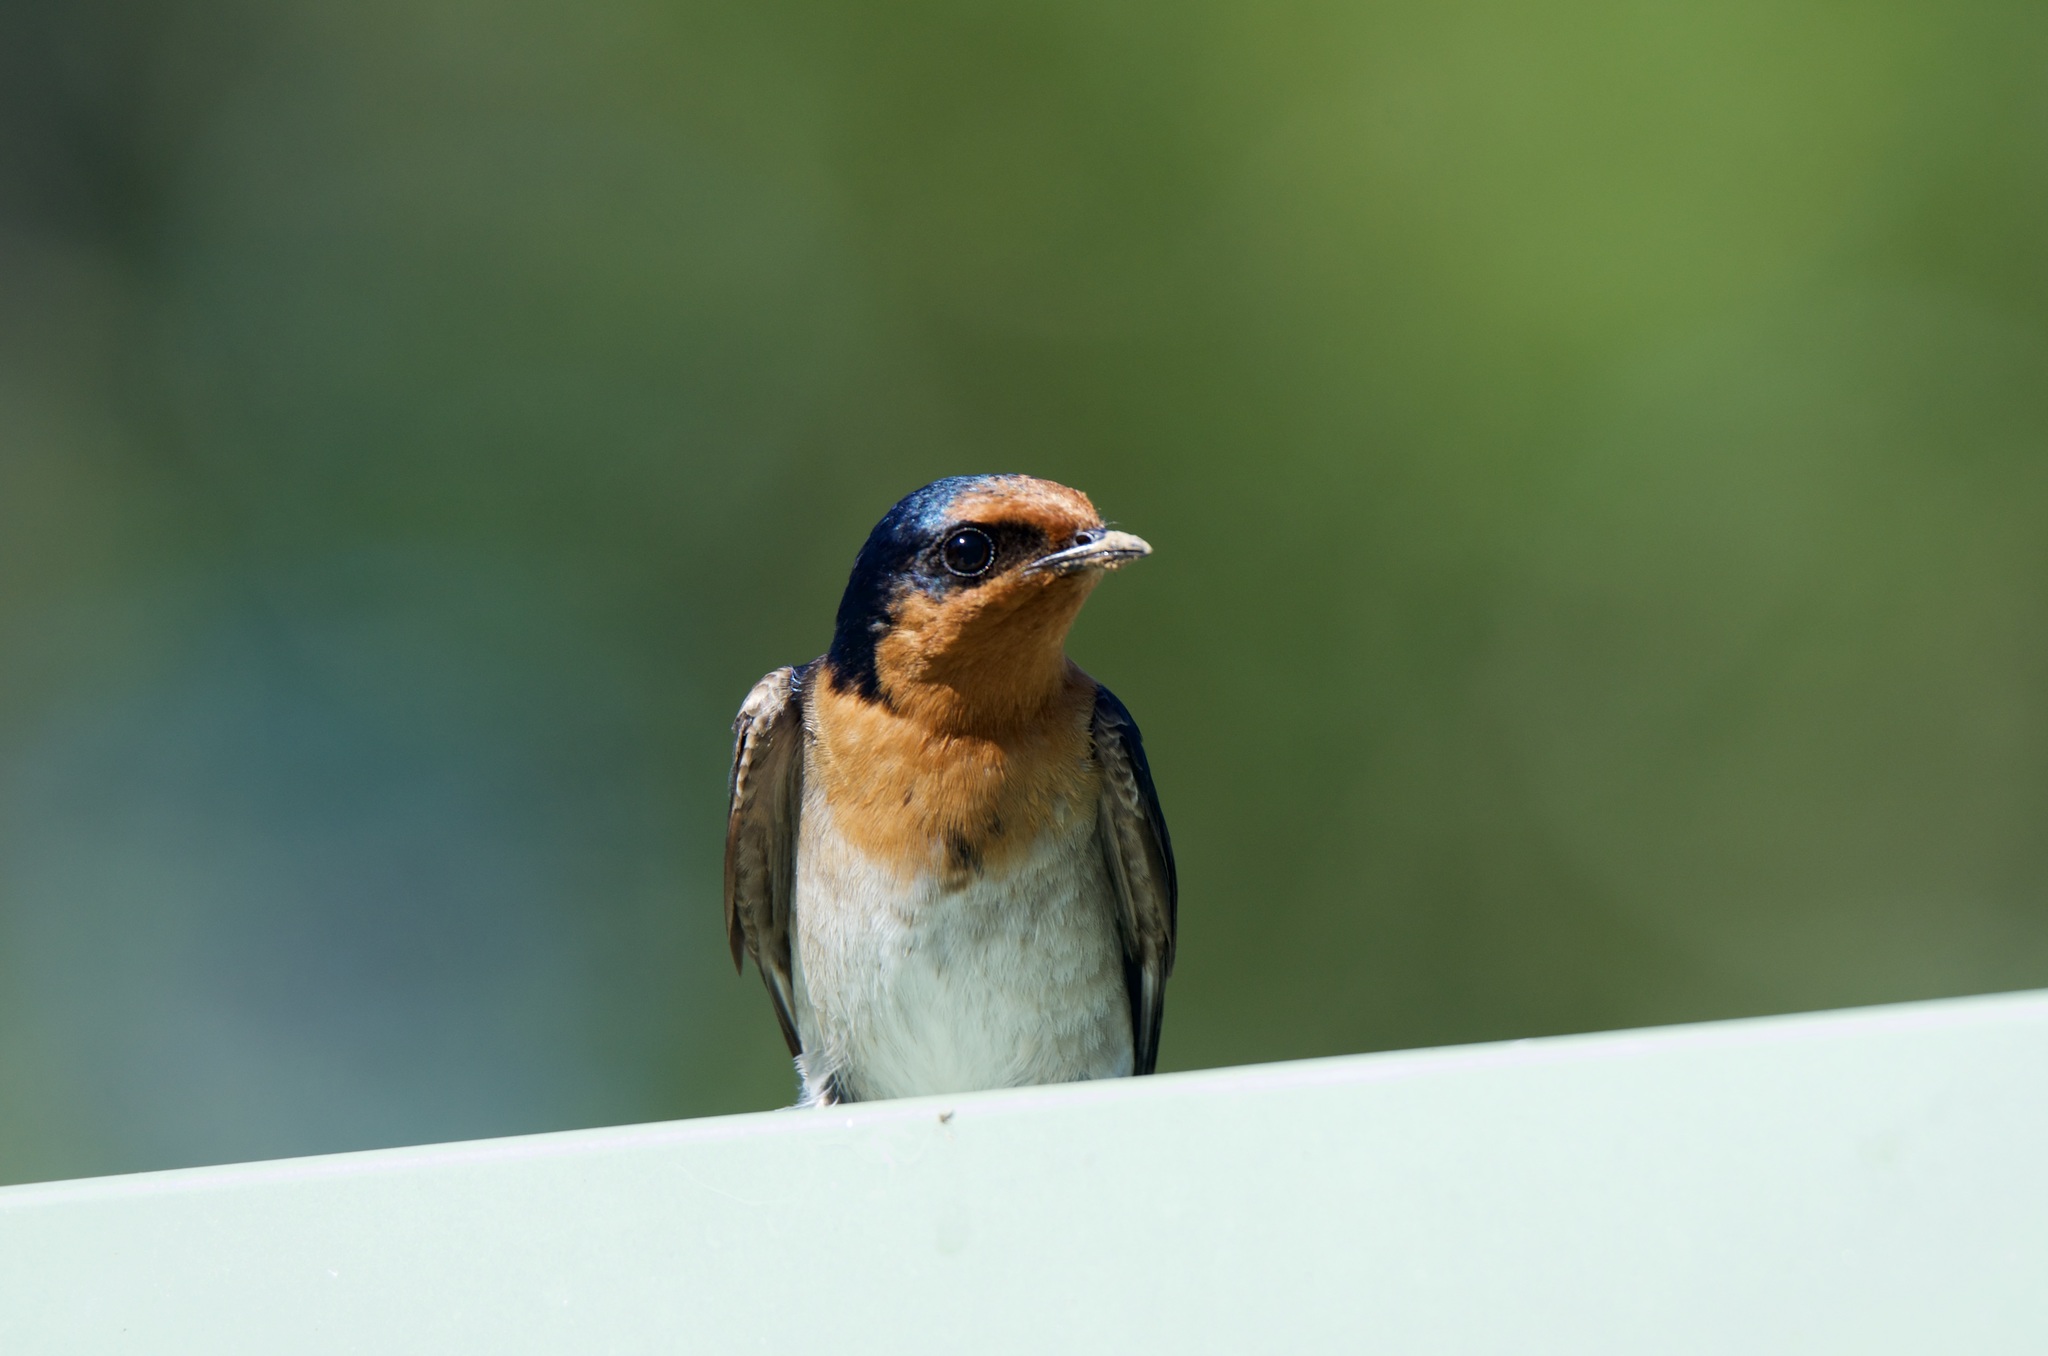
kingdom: Animalia
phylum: Chordata
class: Aves
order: Passeriformes
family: Hirundinidae
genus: Hirundo
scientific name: Hirundo neoxena
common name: Welcome swallow
